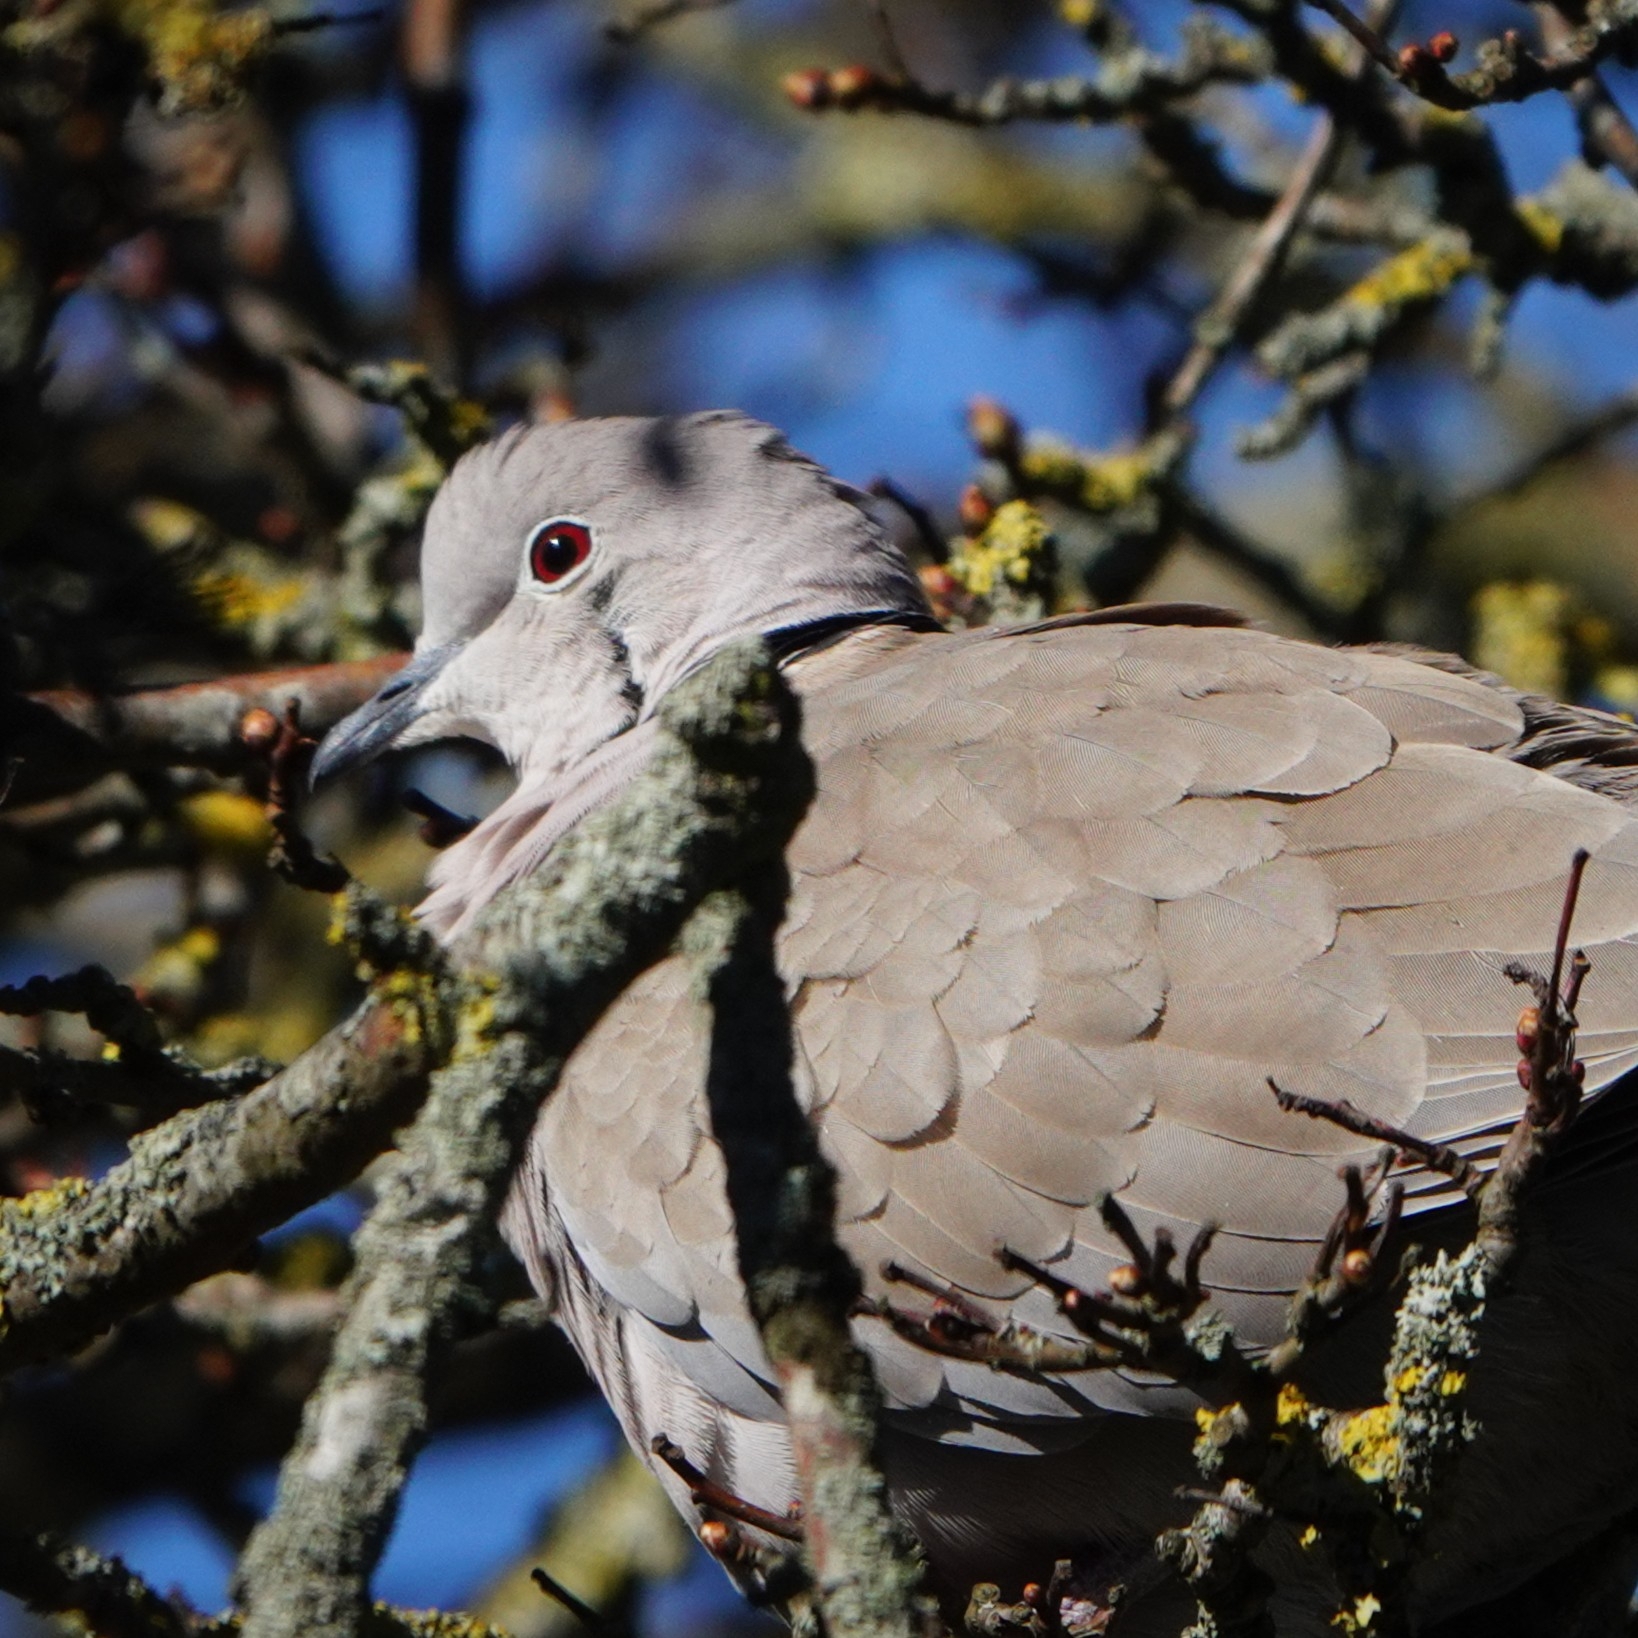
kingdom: Animalia
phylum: Chordata
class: Aves
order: Columbiformes
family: Columbidae
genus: Streptopelia
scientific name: Streptopelia decaocto
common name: Eurasian collared dove
